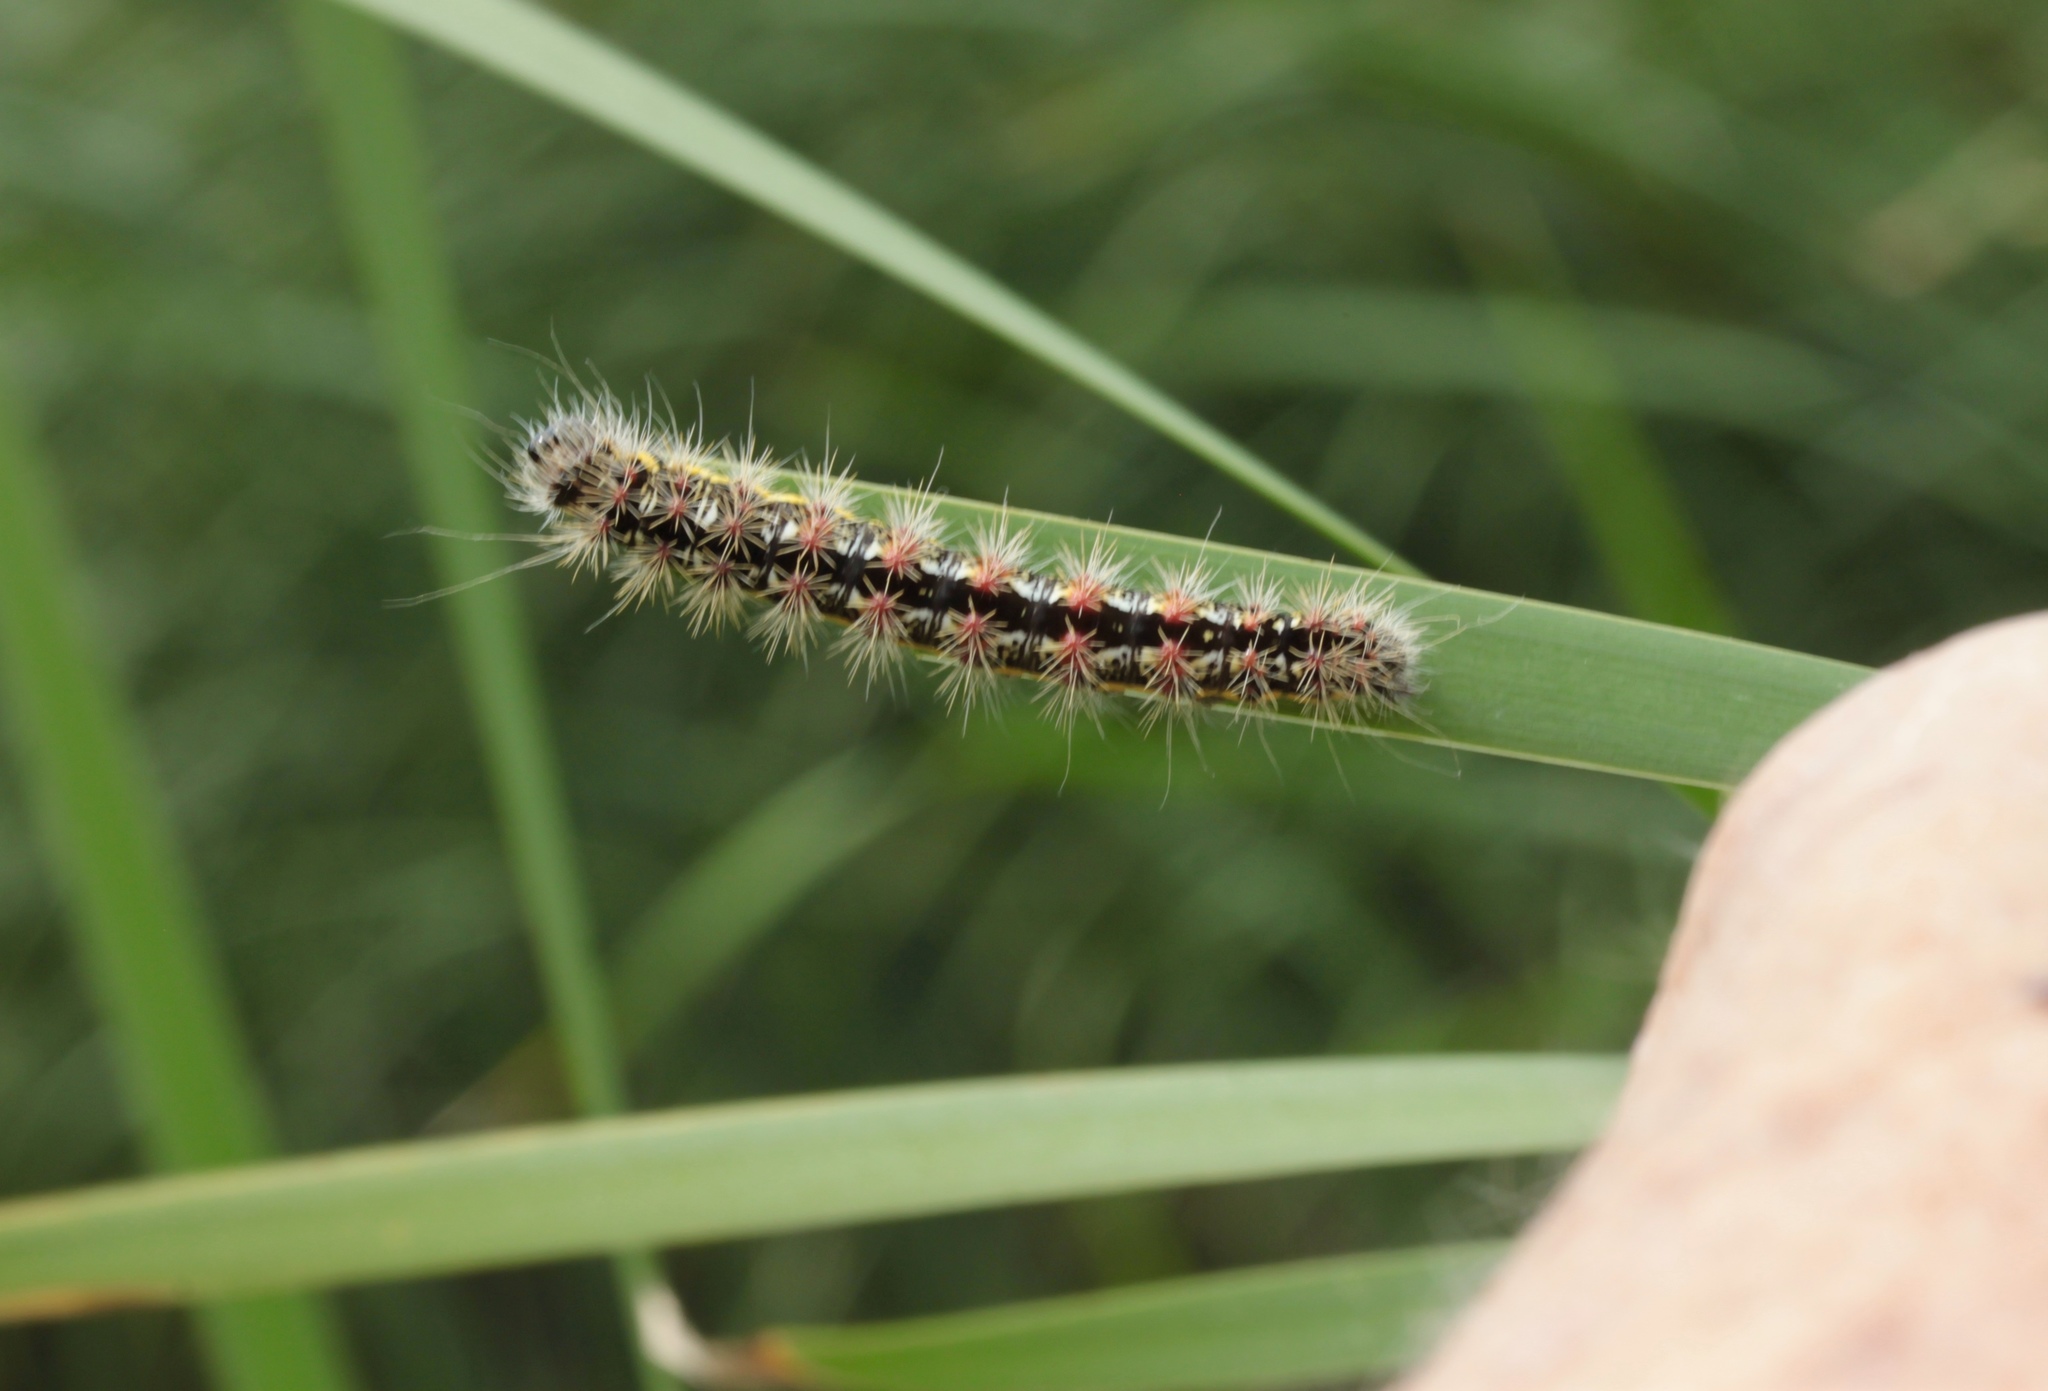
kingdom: Animalia
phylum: Arthropoda
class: Insecta
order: Lepidoptera
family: Noctuidae
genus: Acronicta
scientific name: Acronicta oblinita
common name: Smeared dagger
